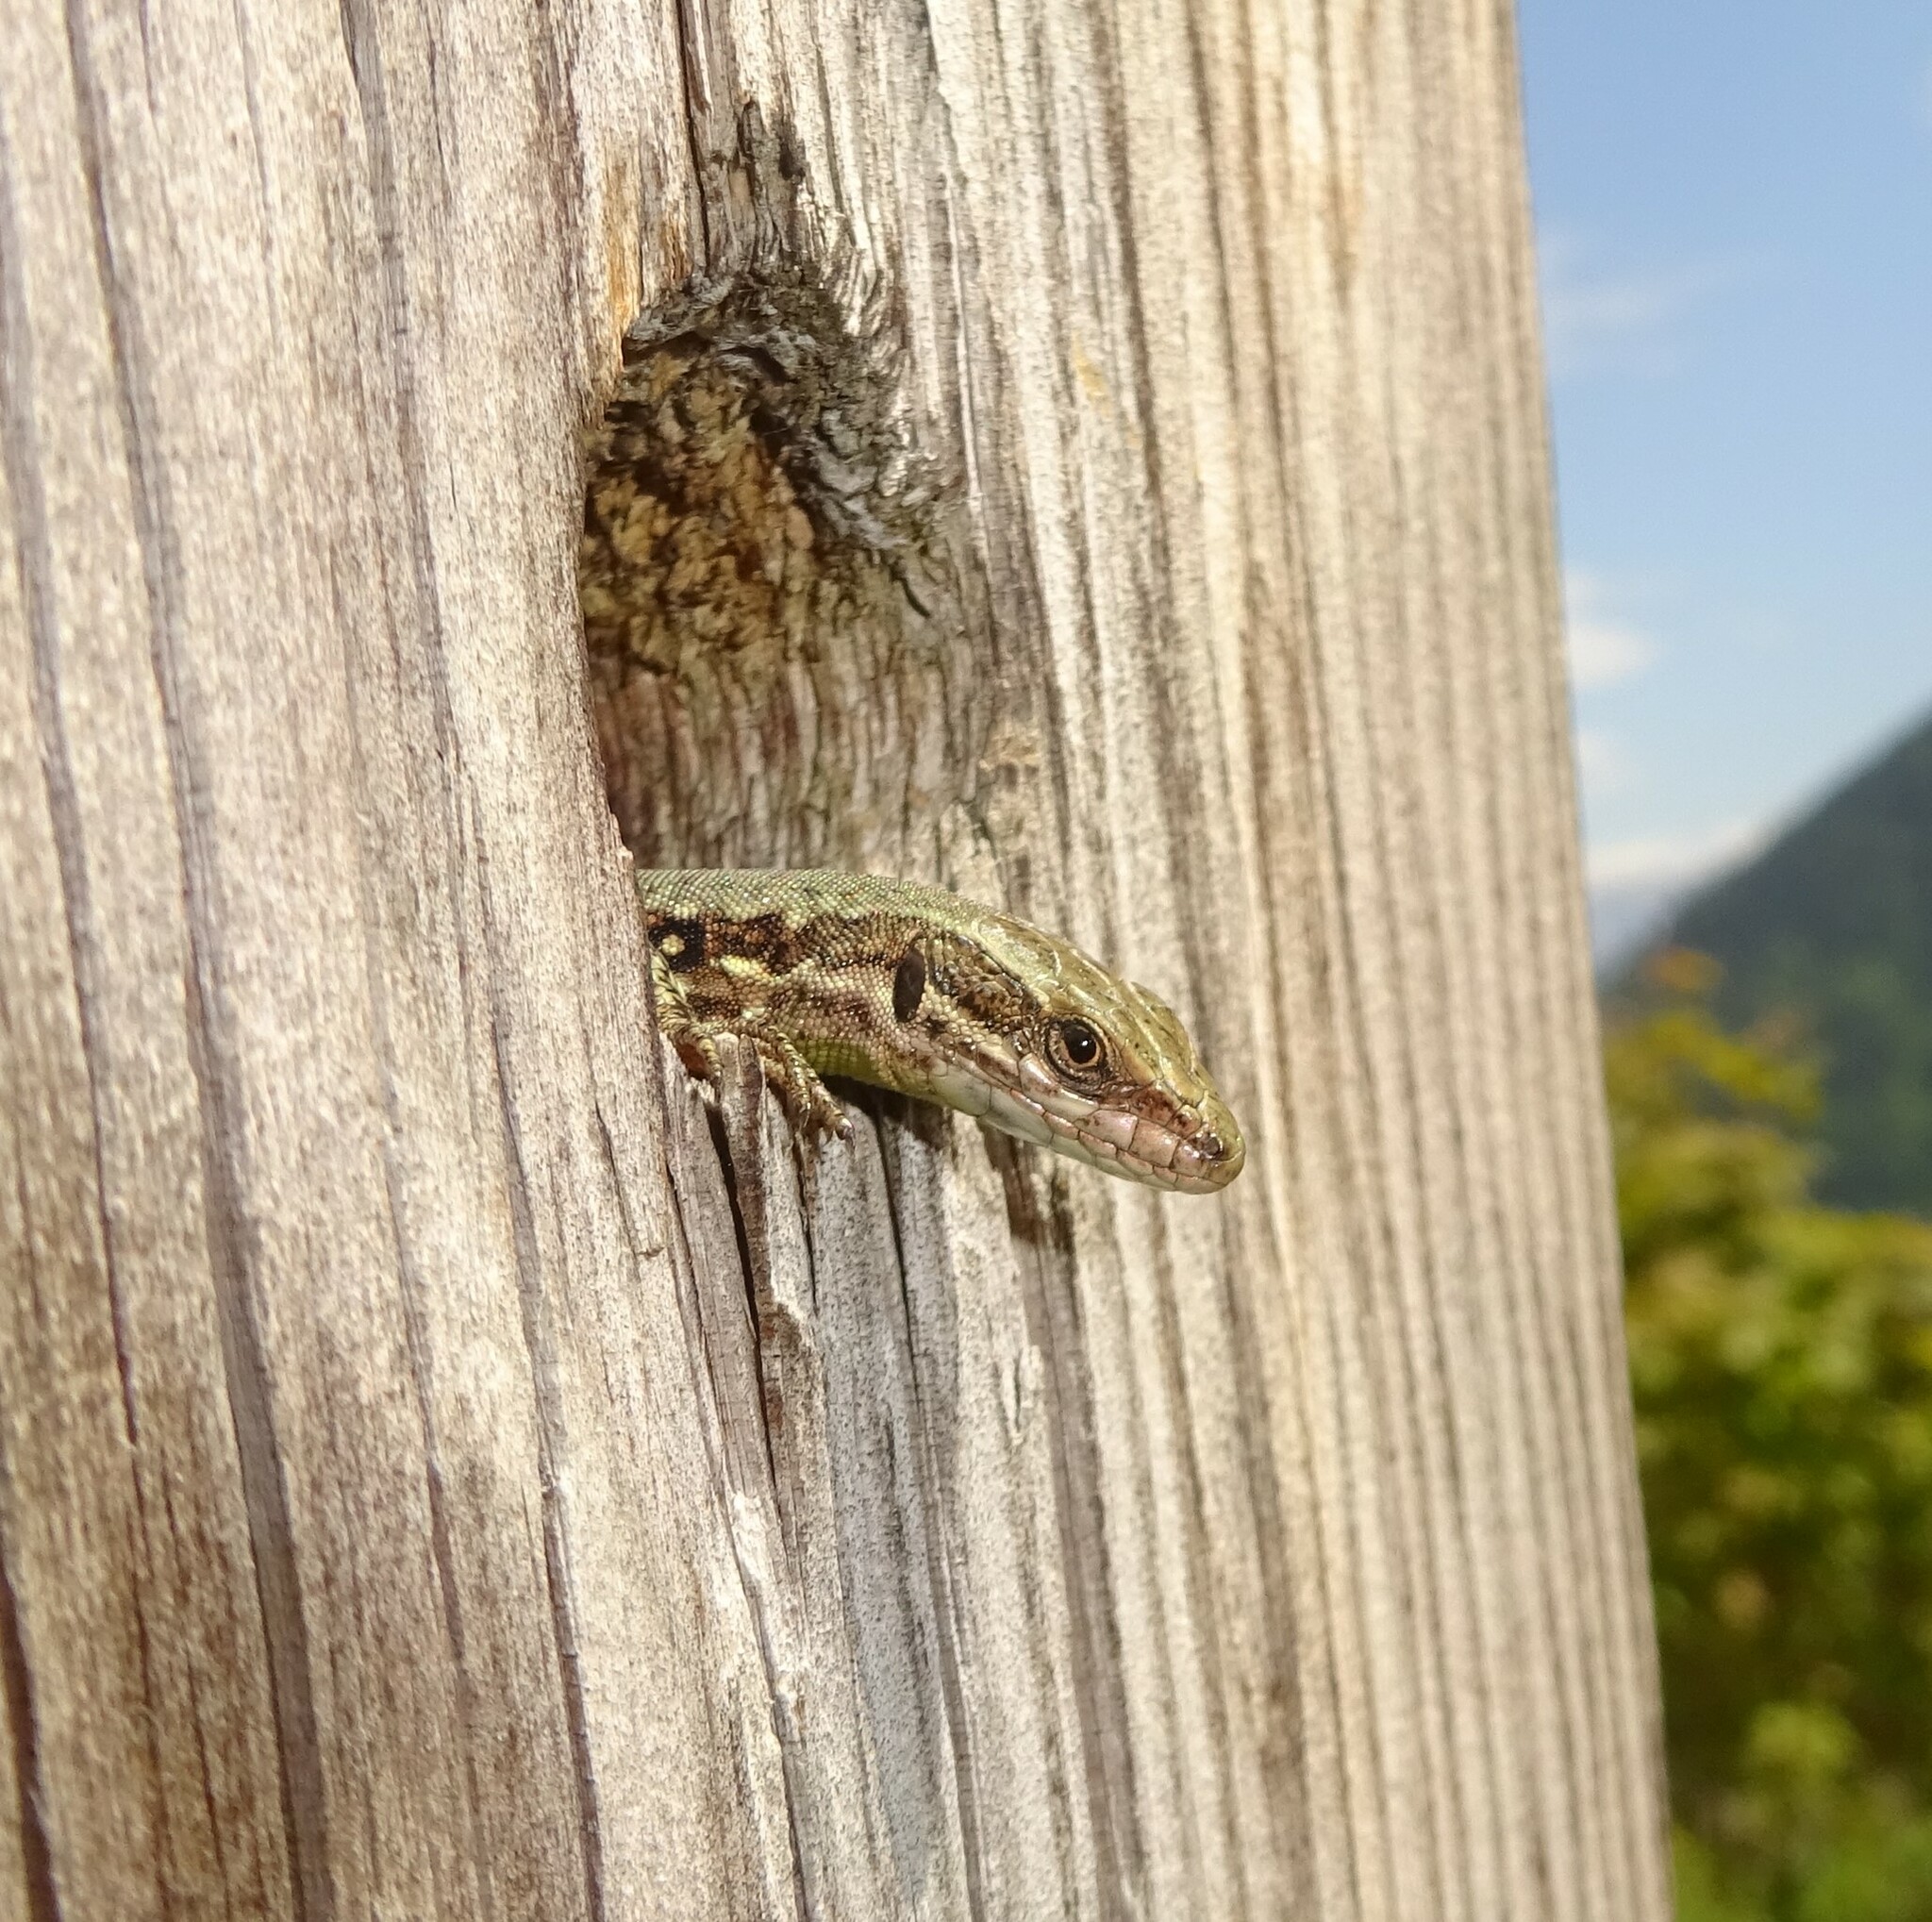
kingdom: Animalia
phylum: Chordata
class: Squamata
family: Lacertidae
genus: Podarcis
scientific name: Podarcis muralis
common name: Common wall lizard
